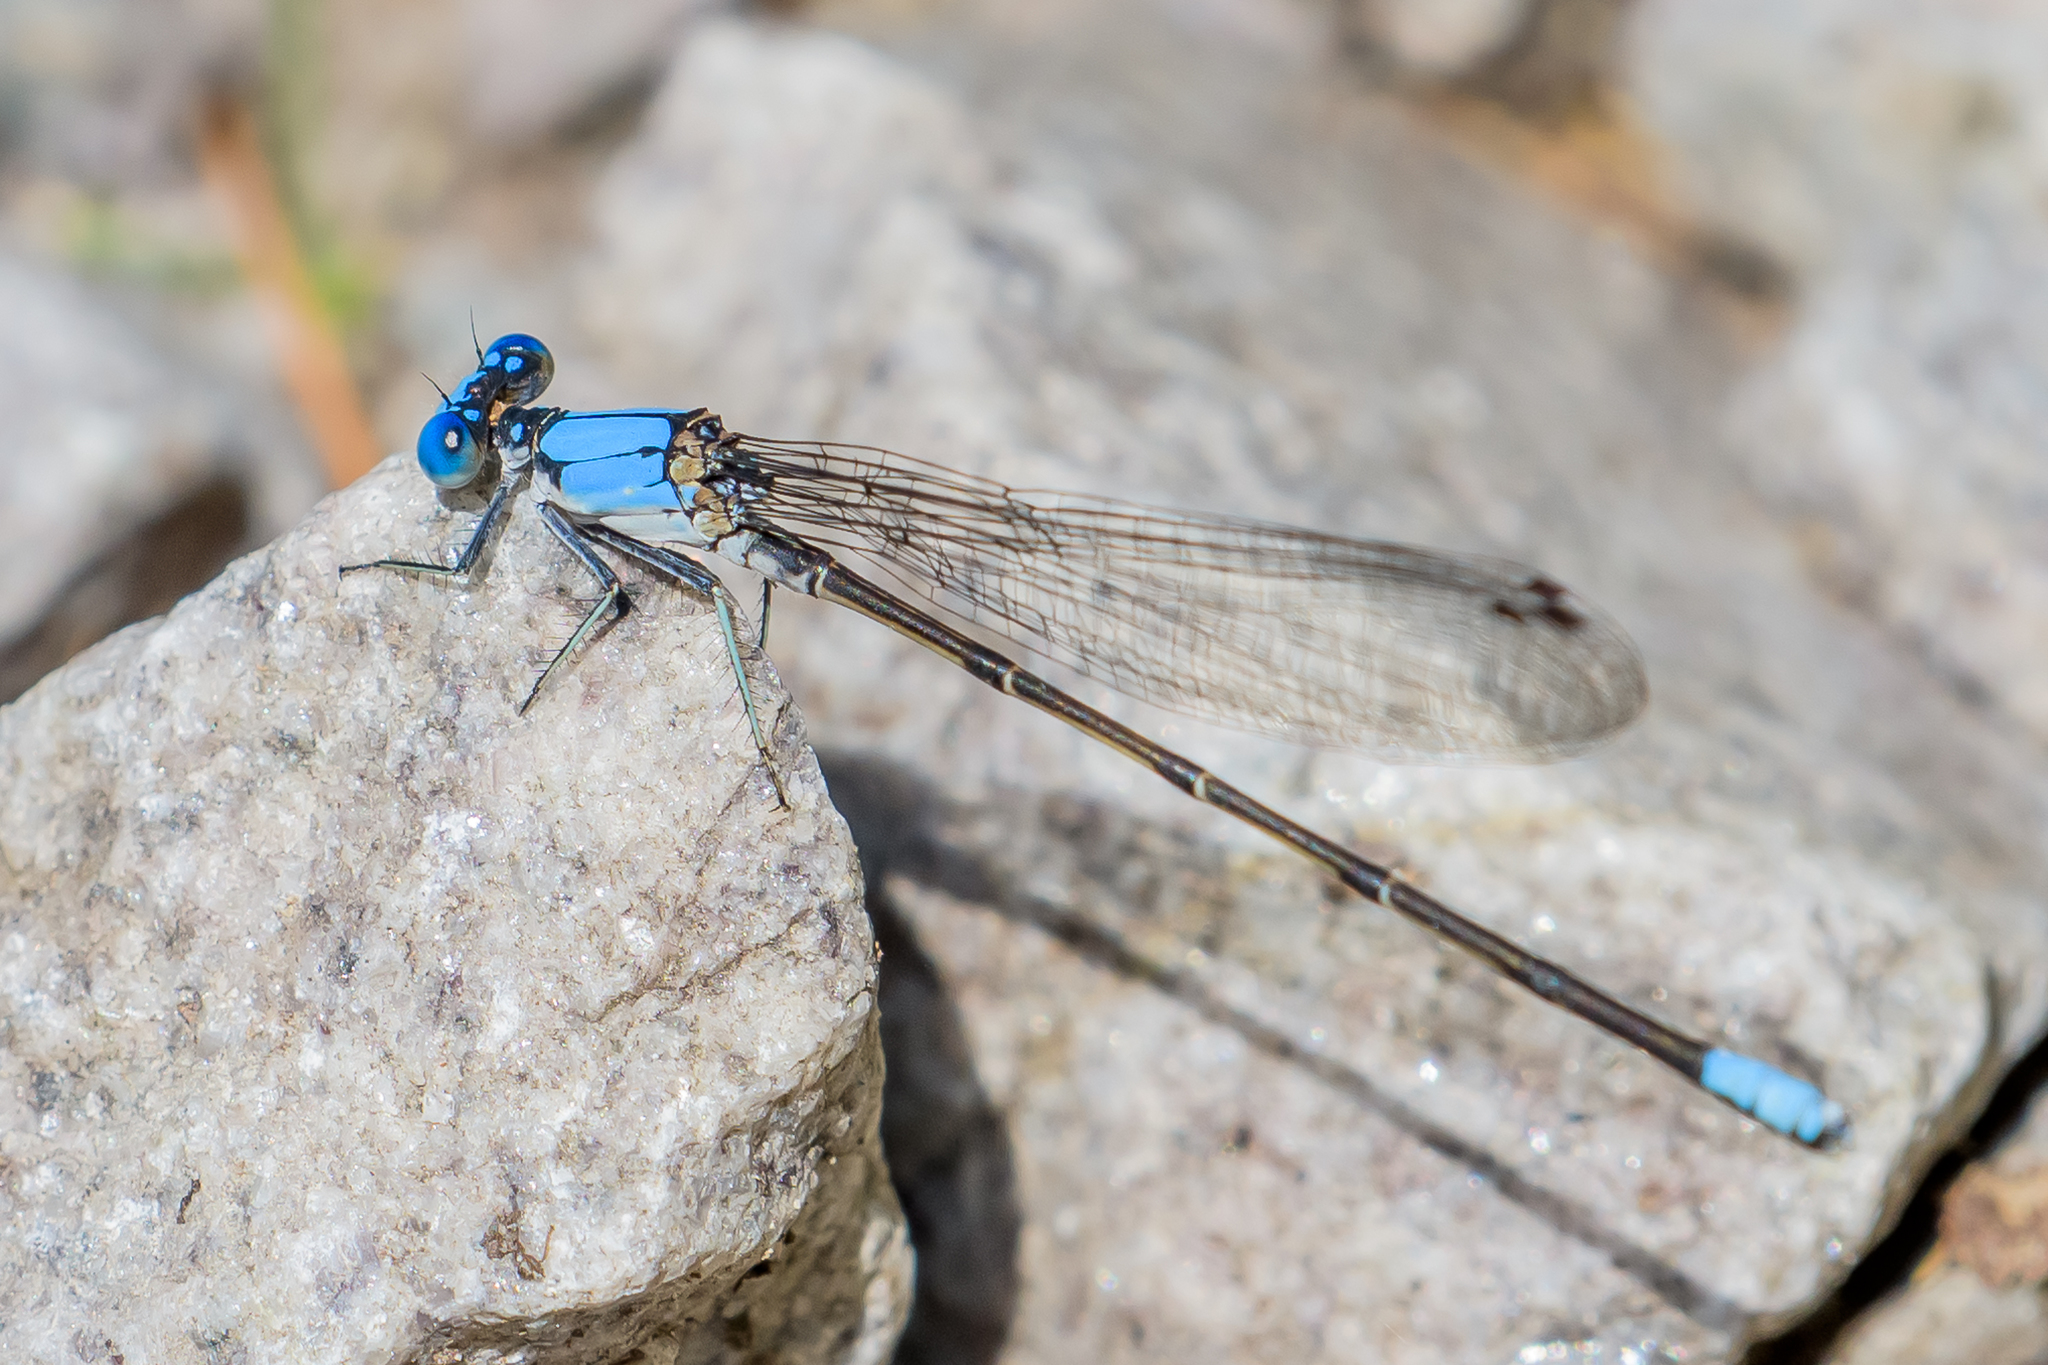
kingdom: Animalia
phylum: Arthropoda
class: Insecta
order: Odonata
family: Coenagrionidae
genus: Argia
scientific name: Argia apicalis
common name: Blue-fronted dancer
